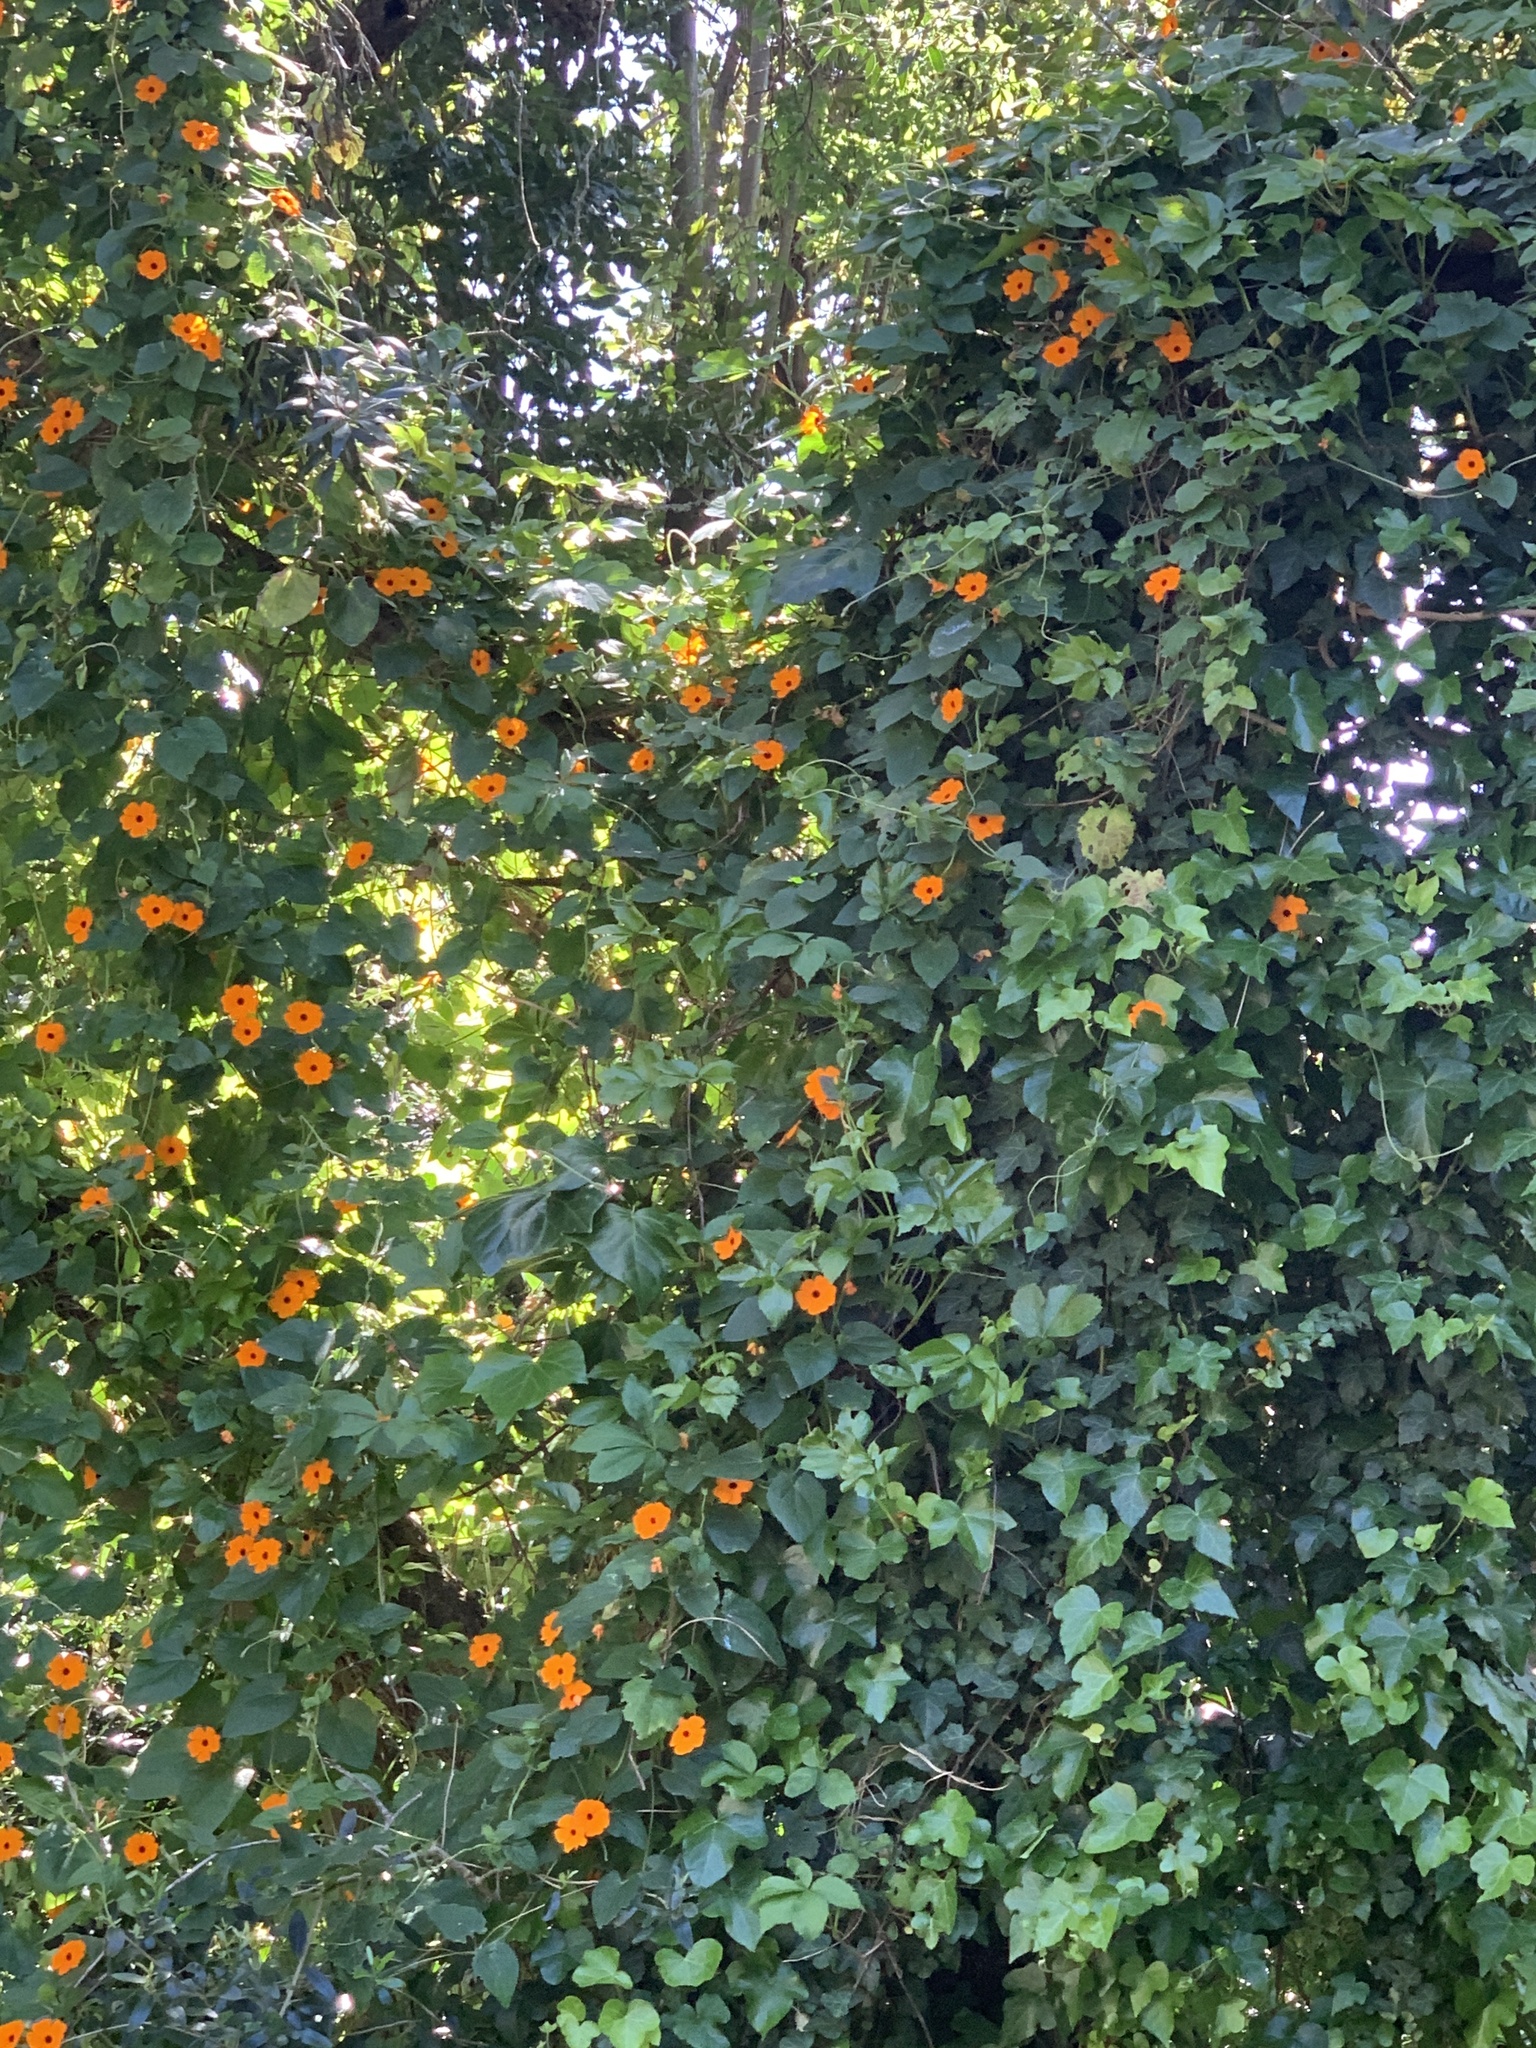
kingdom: Plantae
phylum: Tracheophyta
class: Magnoliopsida
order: Lamiales
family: Acanthaceae
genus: Thunbergia
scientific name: Thunbergia alata
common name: Blackeyed susan vine
